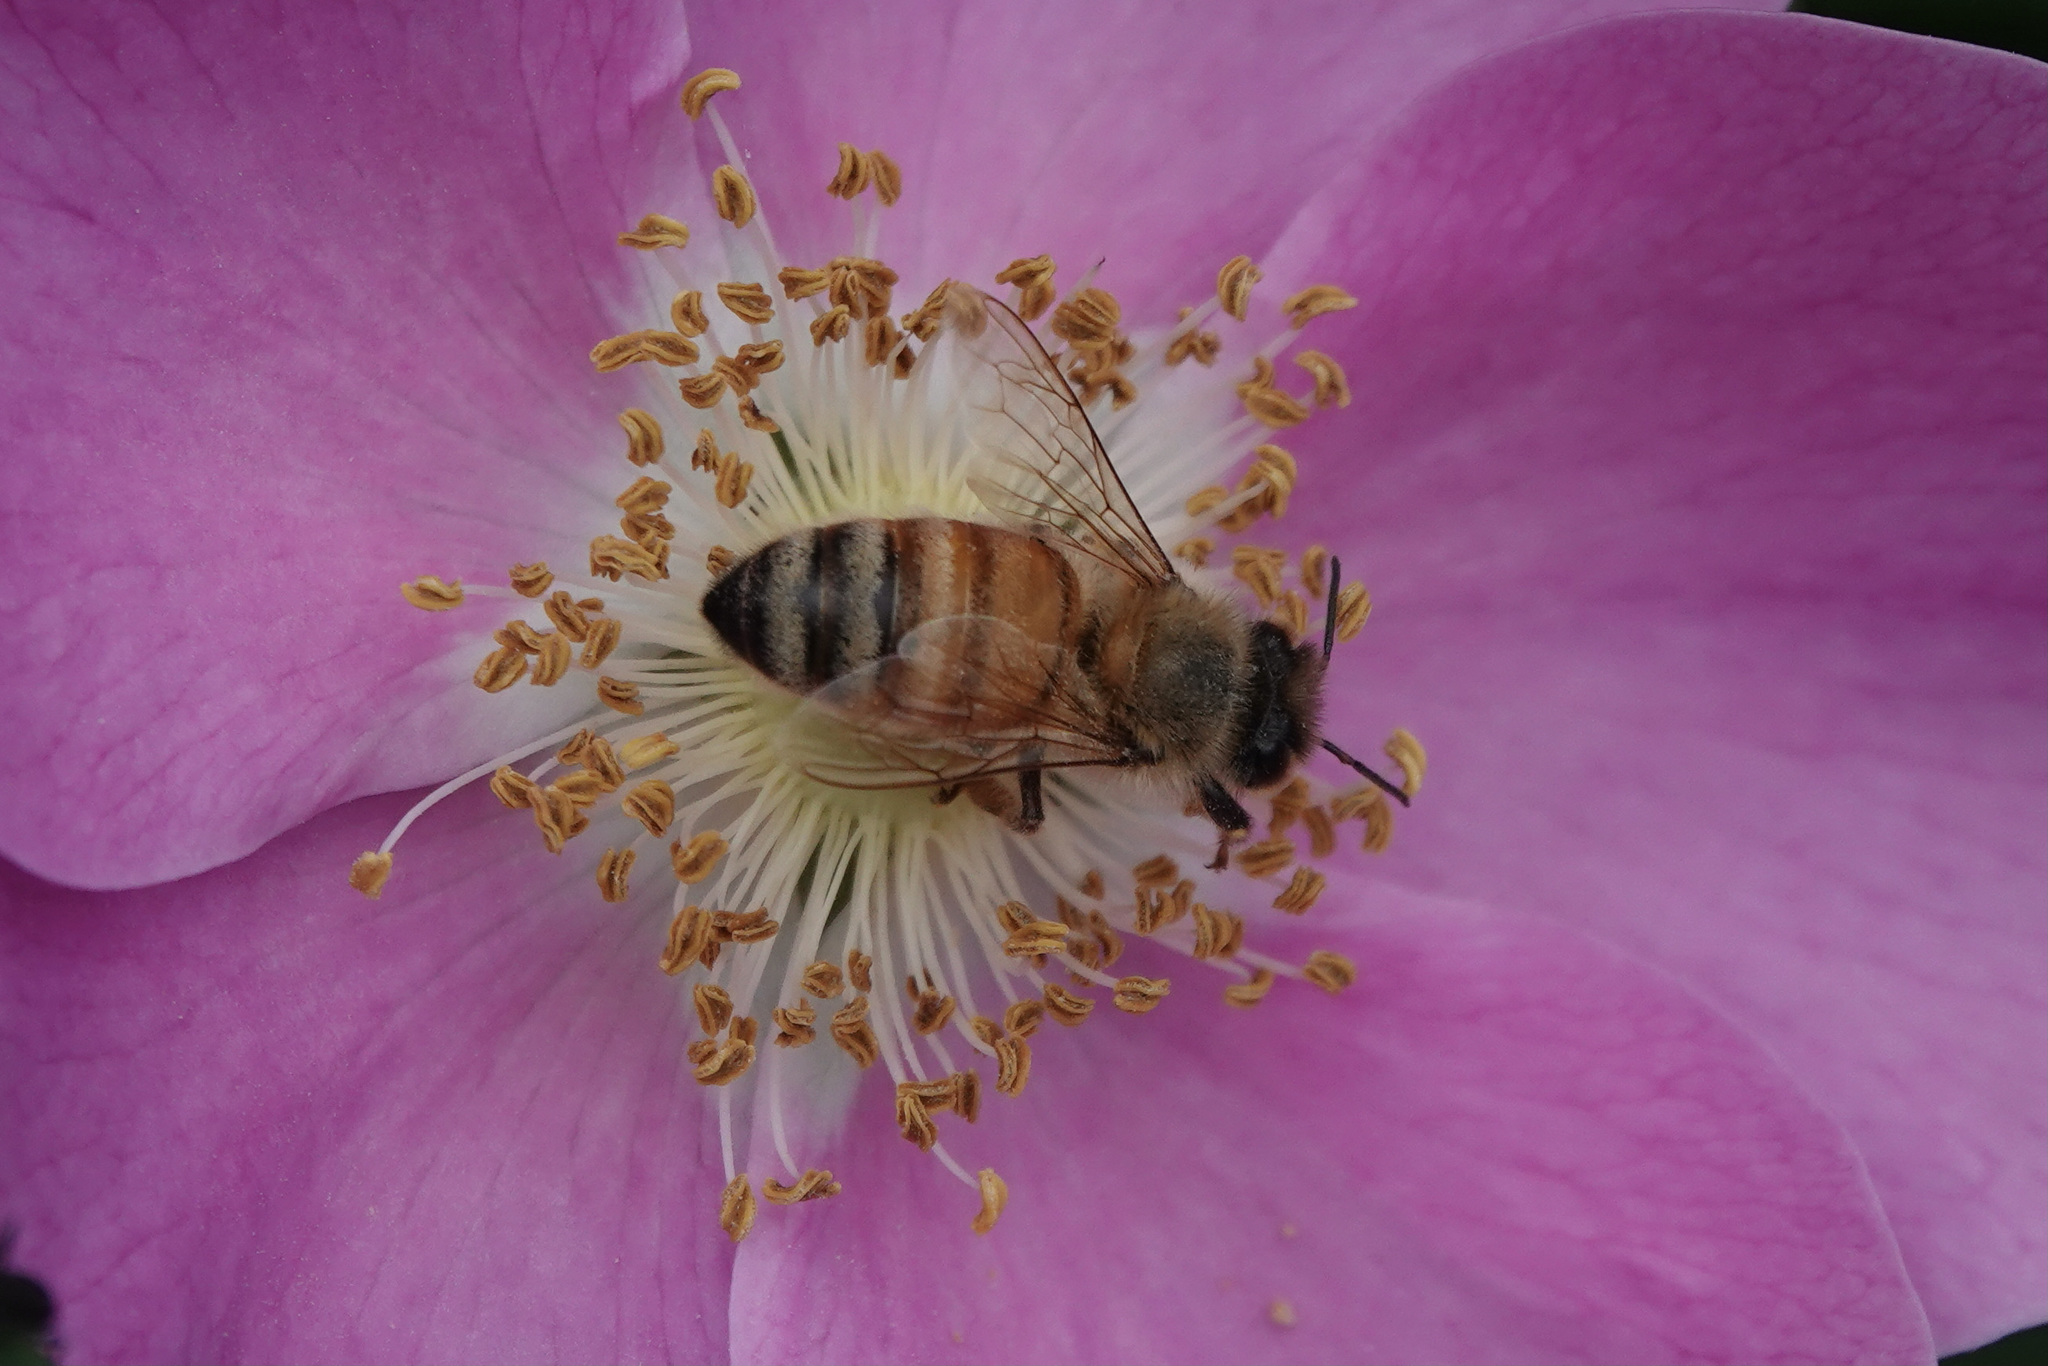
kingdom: Animalia
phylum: Arthropoda
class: Insecta
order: Hymenoptera
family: Apidae
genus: Apis
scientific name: Apis mellifera
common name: Honey bee
